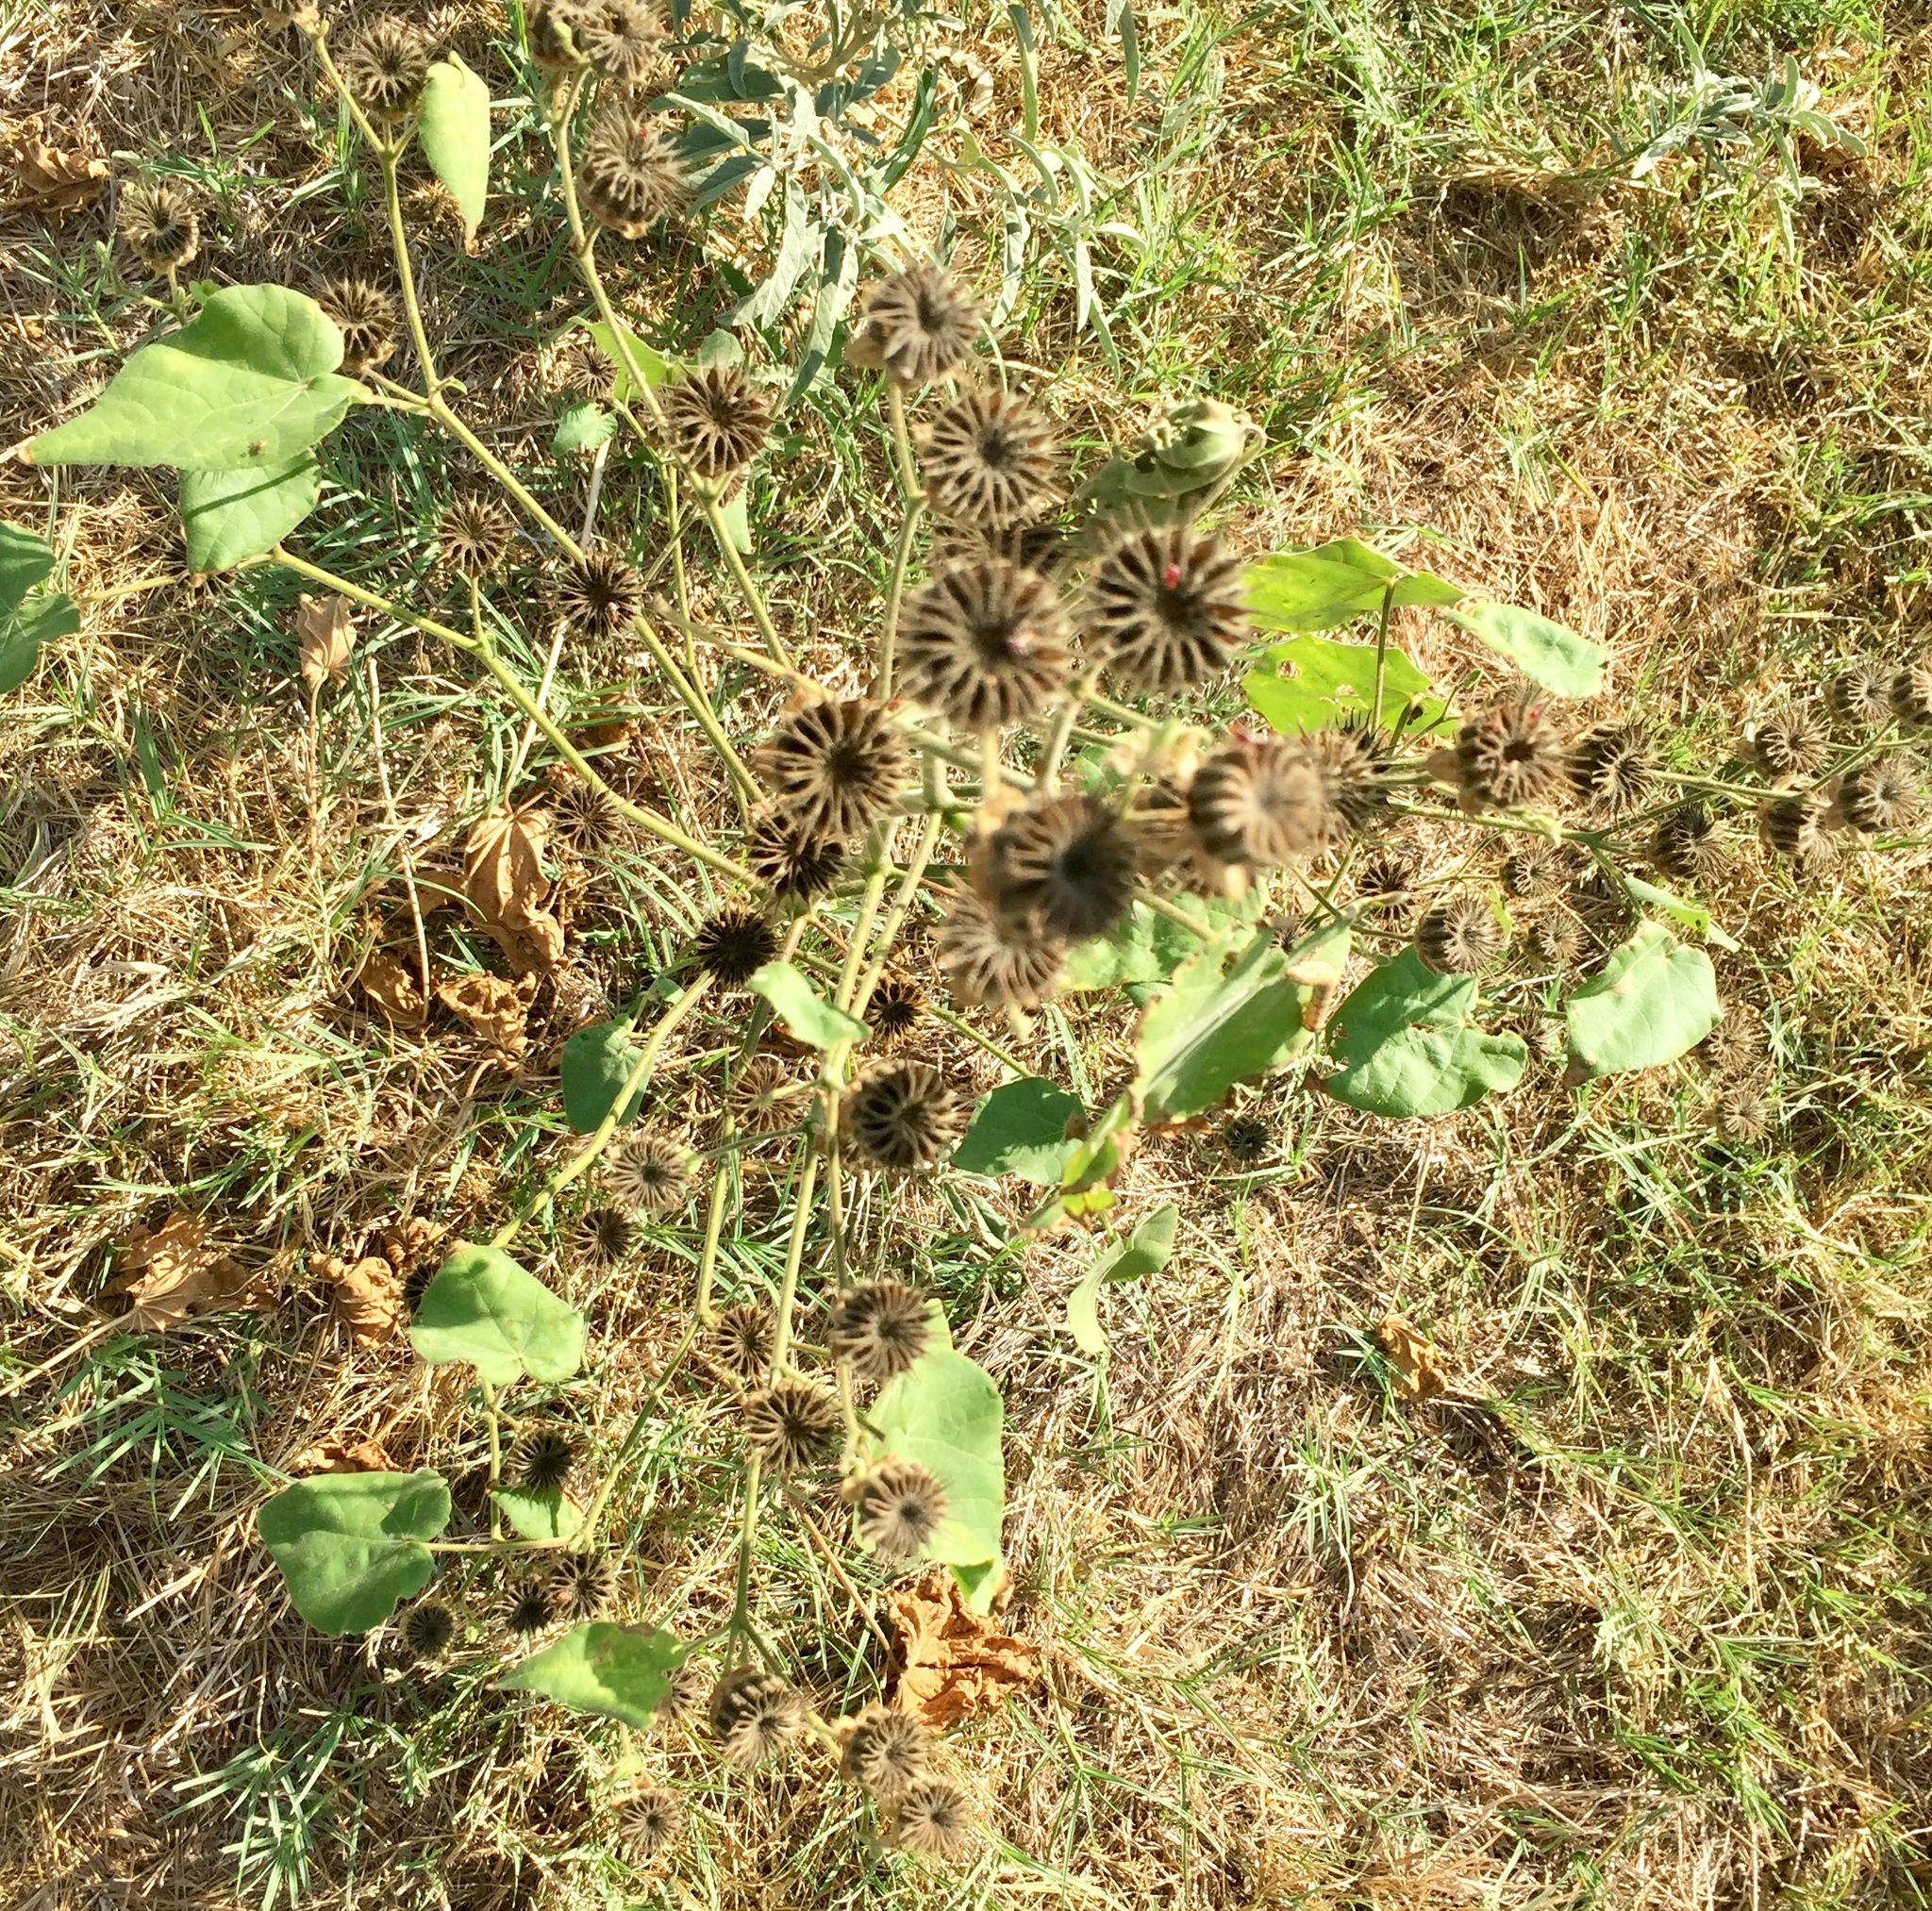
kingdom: Plantae
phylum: Tracheophyta
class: Magnoliopsida
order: Malvales
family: Malvaceae
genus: Abutilon
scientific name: Abutilon theophrasti
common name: Velvetleaf
